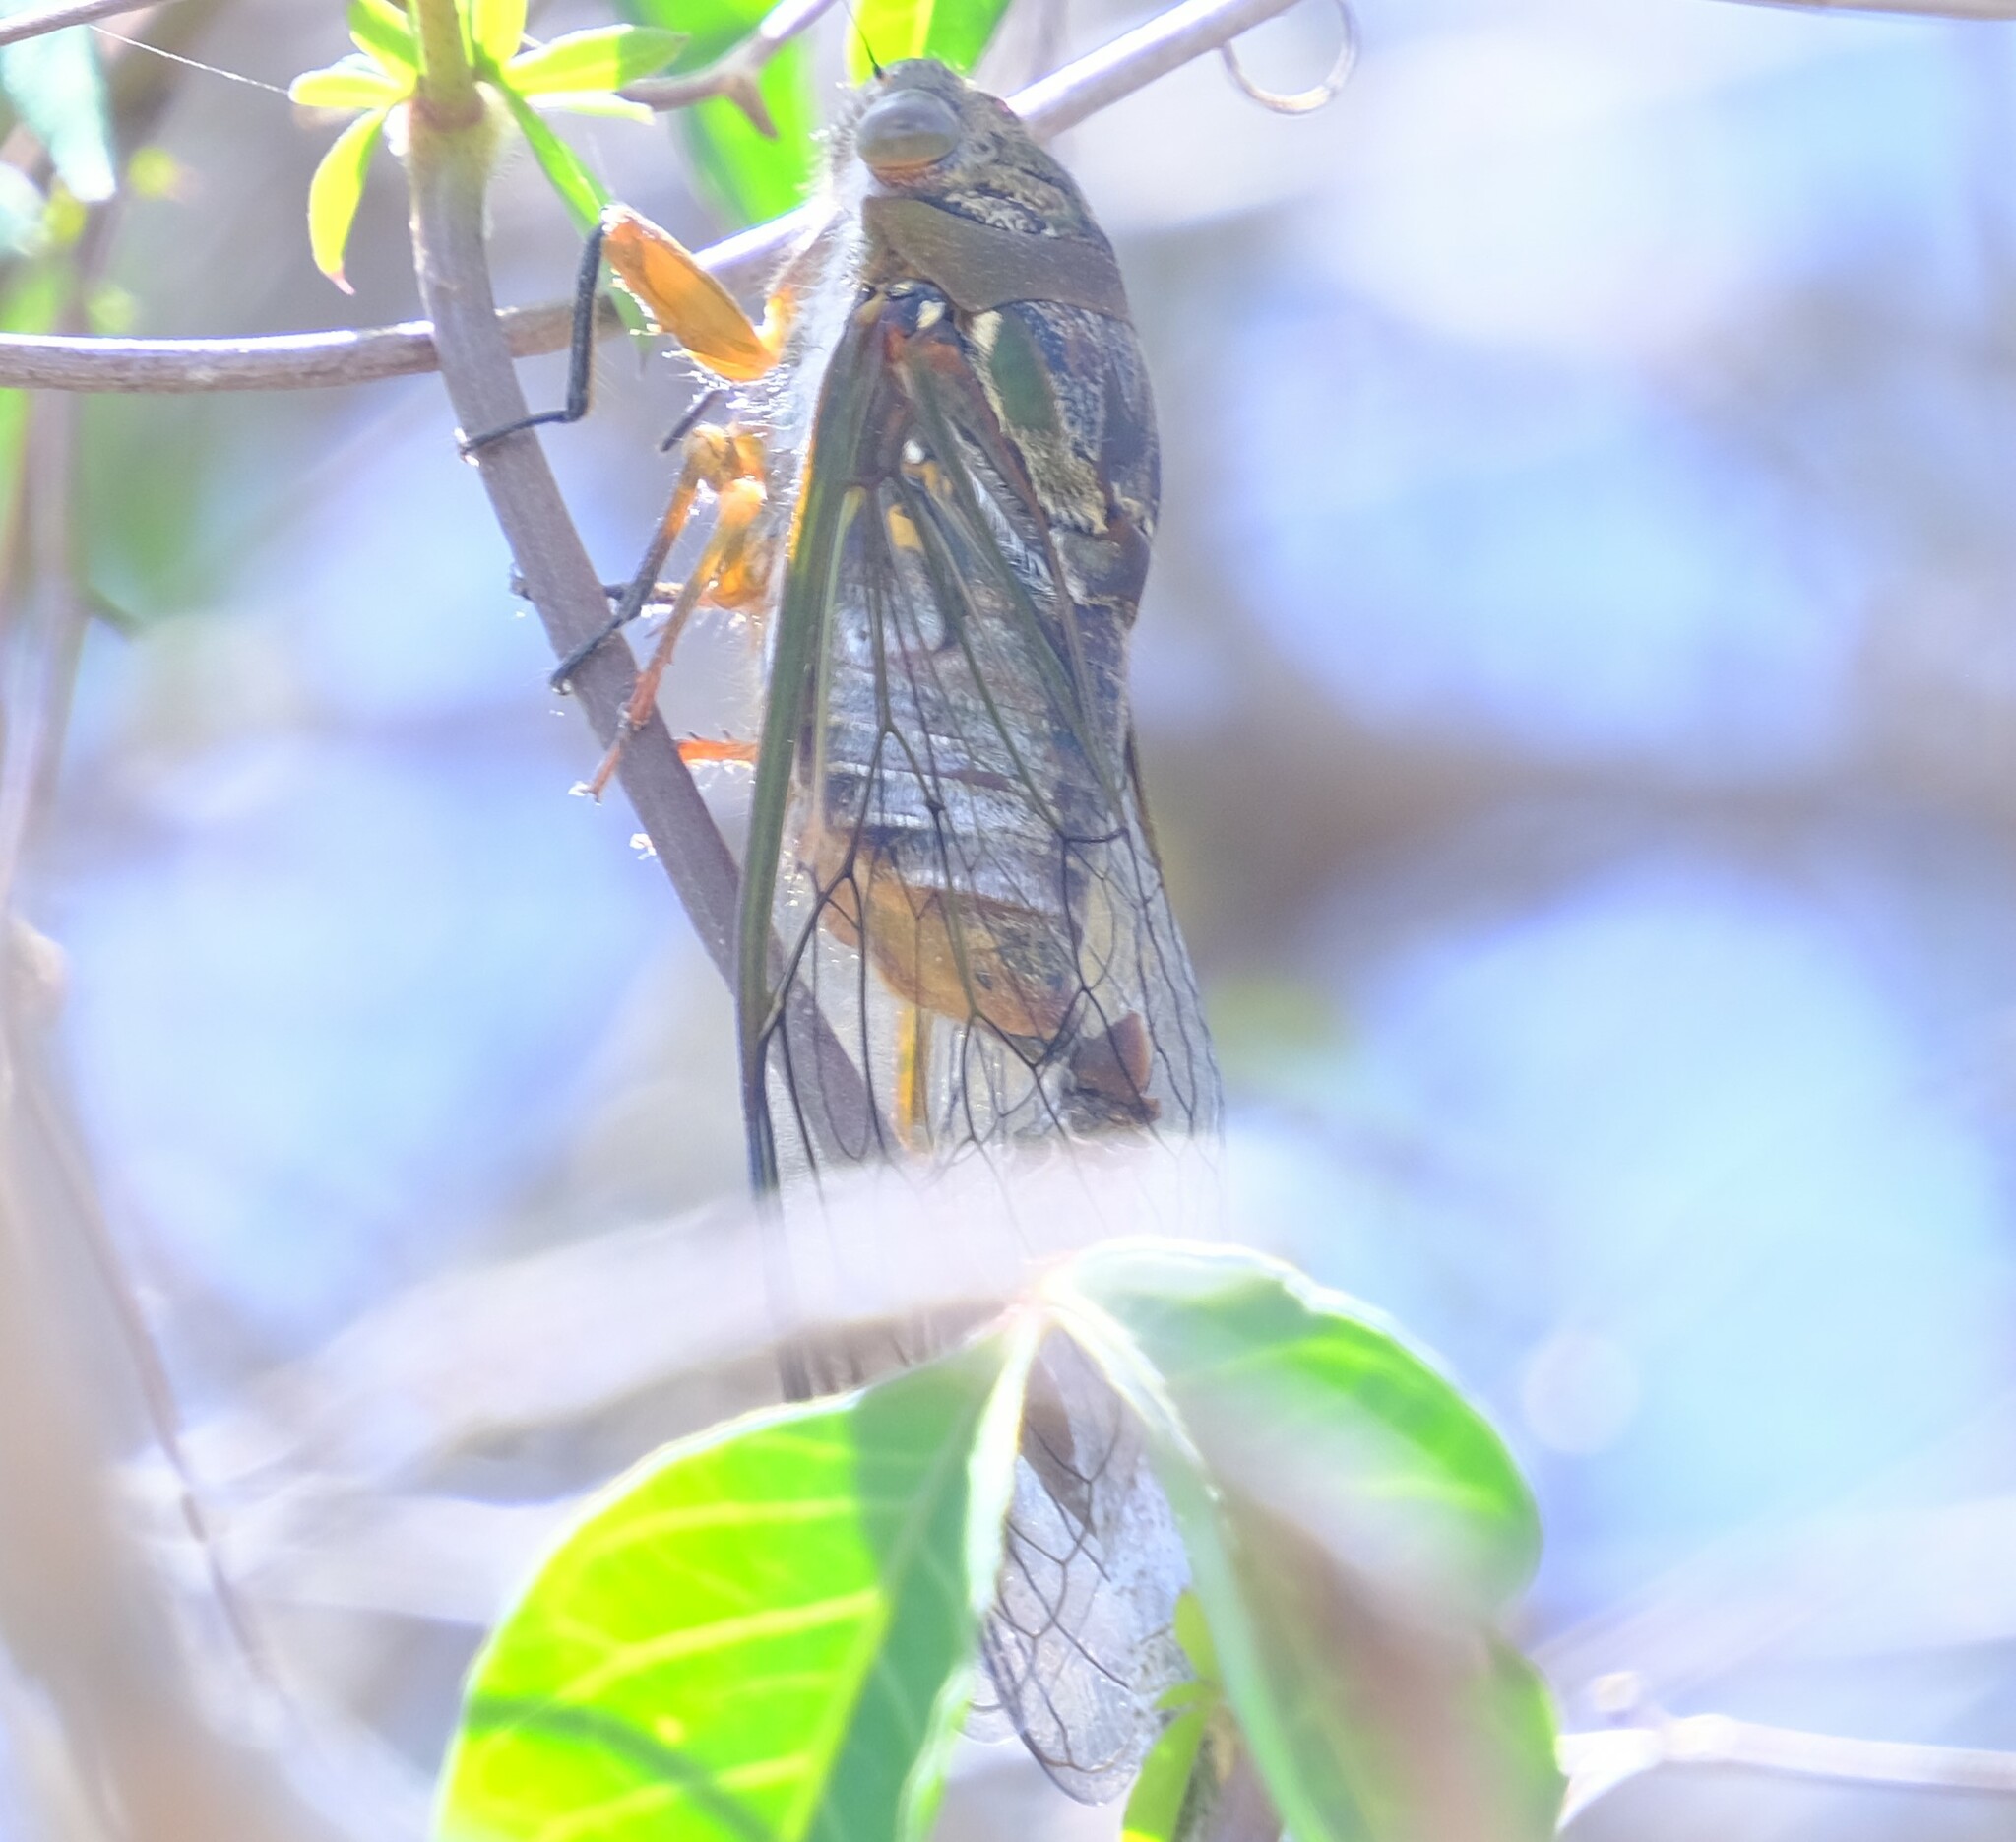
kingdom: Animalia
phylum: Arthropoda
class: Insecta
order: Hemiptera
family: Cicadidae
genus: Psaltoda
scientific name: Psaltoda plaga
